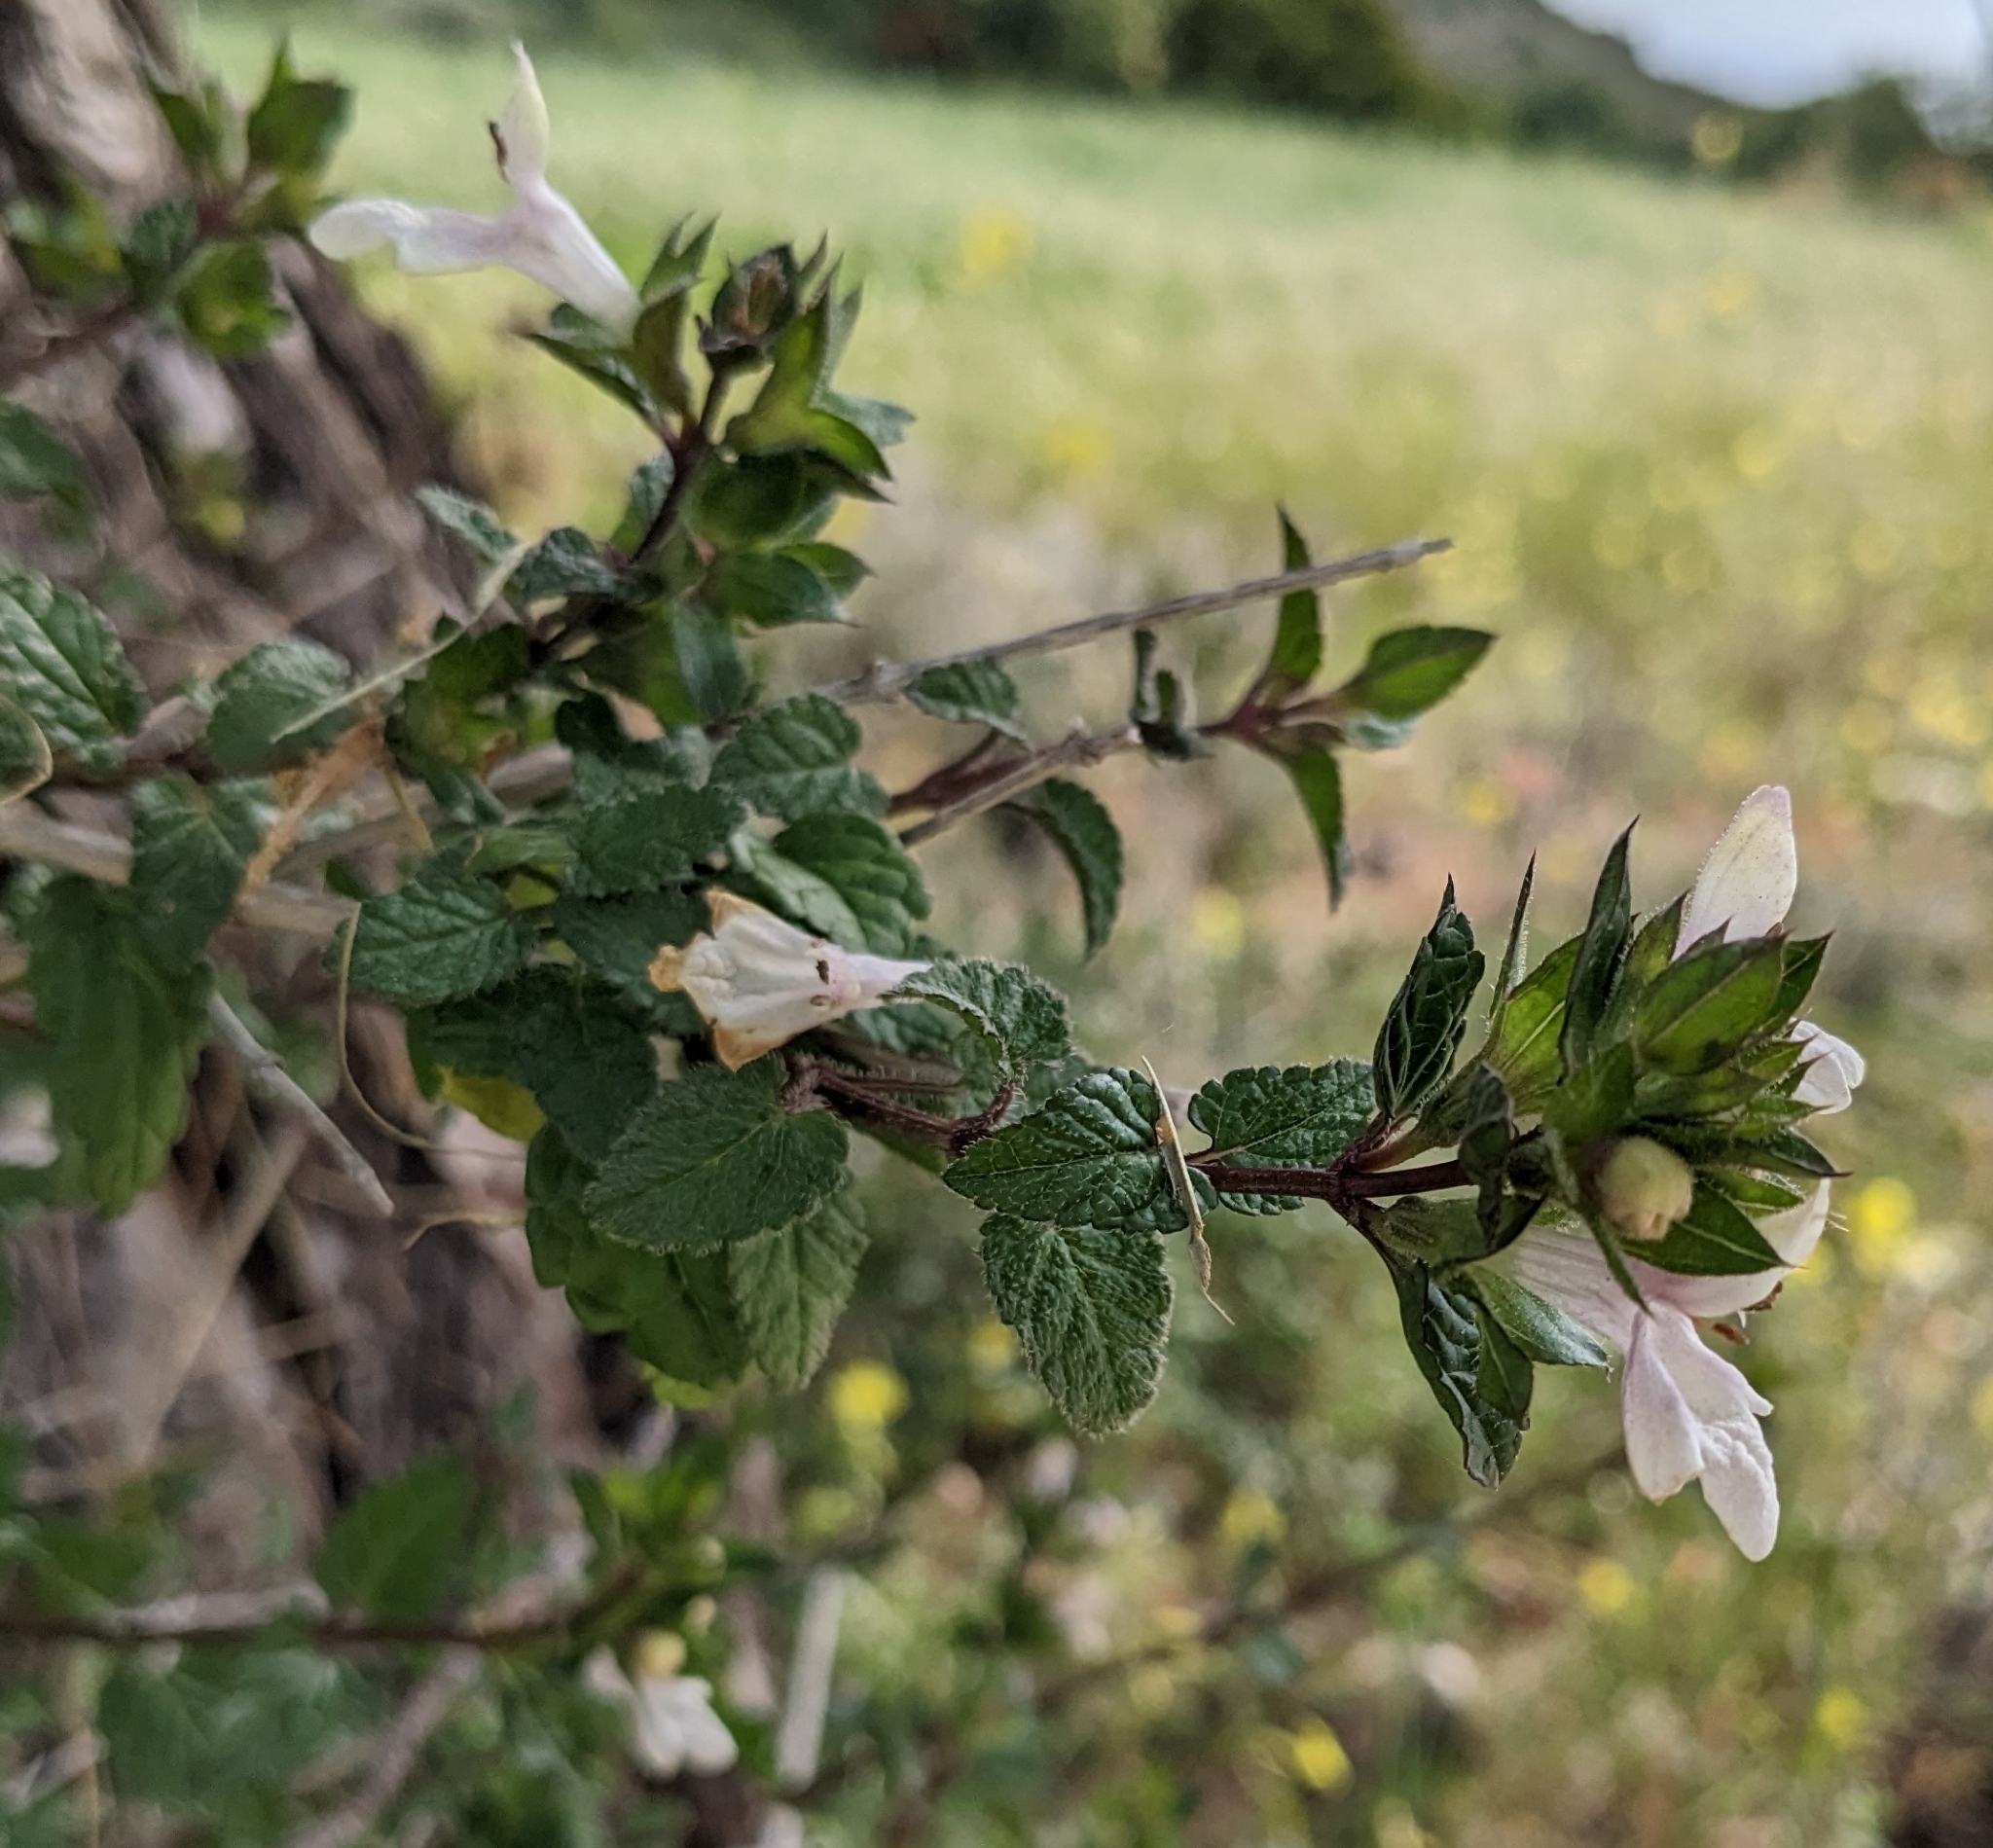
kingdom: Plantae
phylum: Tracheophyta
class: Magnoliopsida
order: Lamiales
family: Lamiaceae
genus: Prasium
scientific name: Prasium majus
